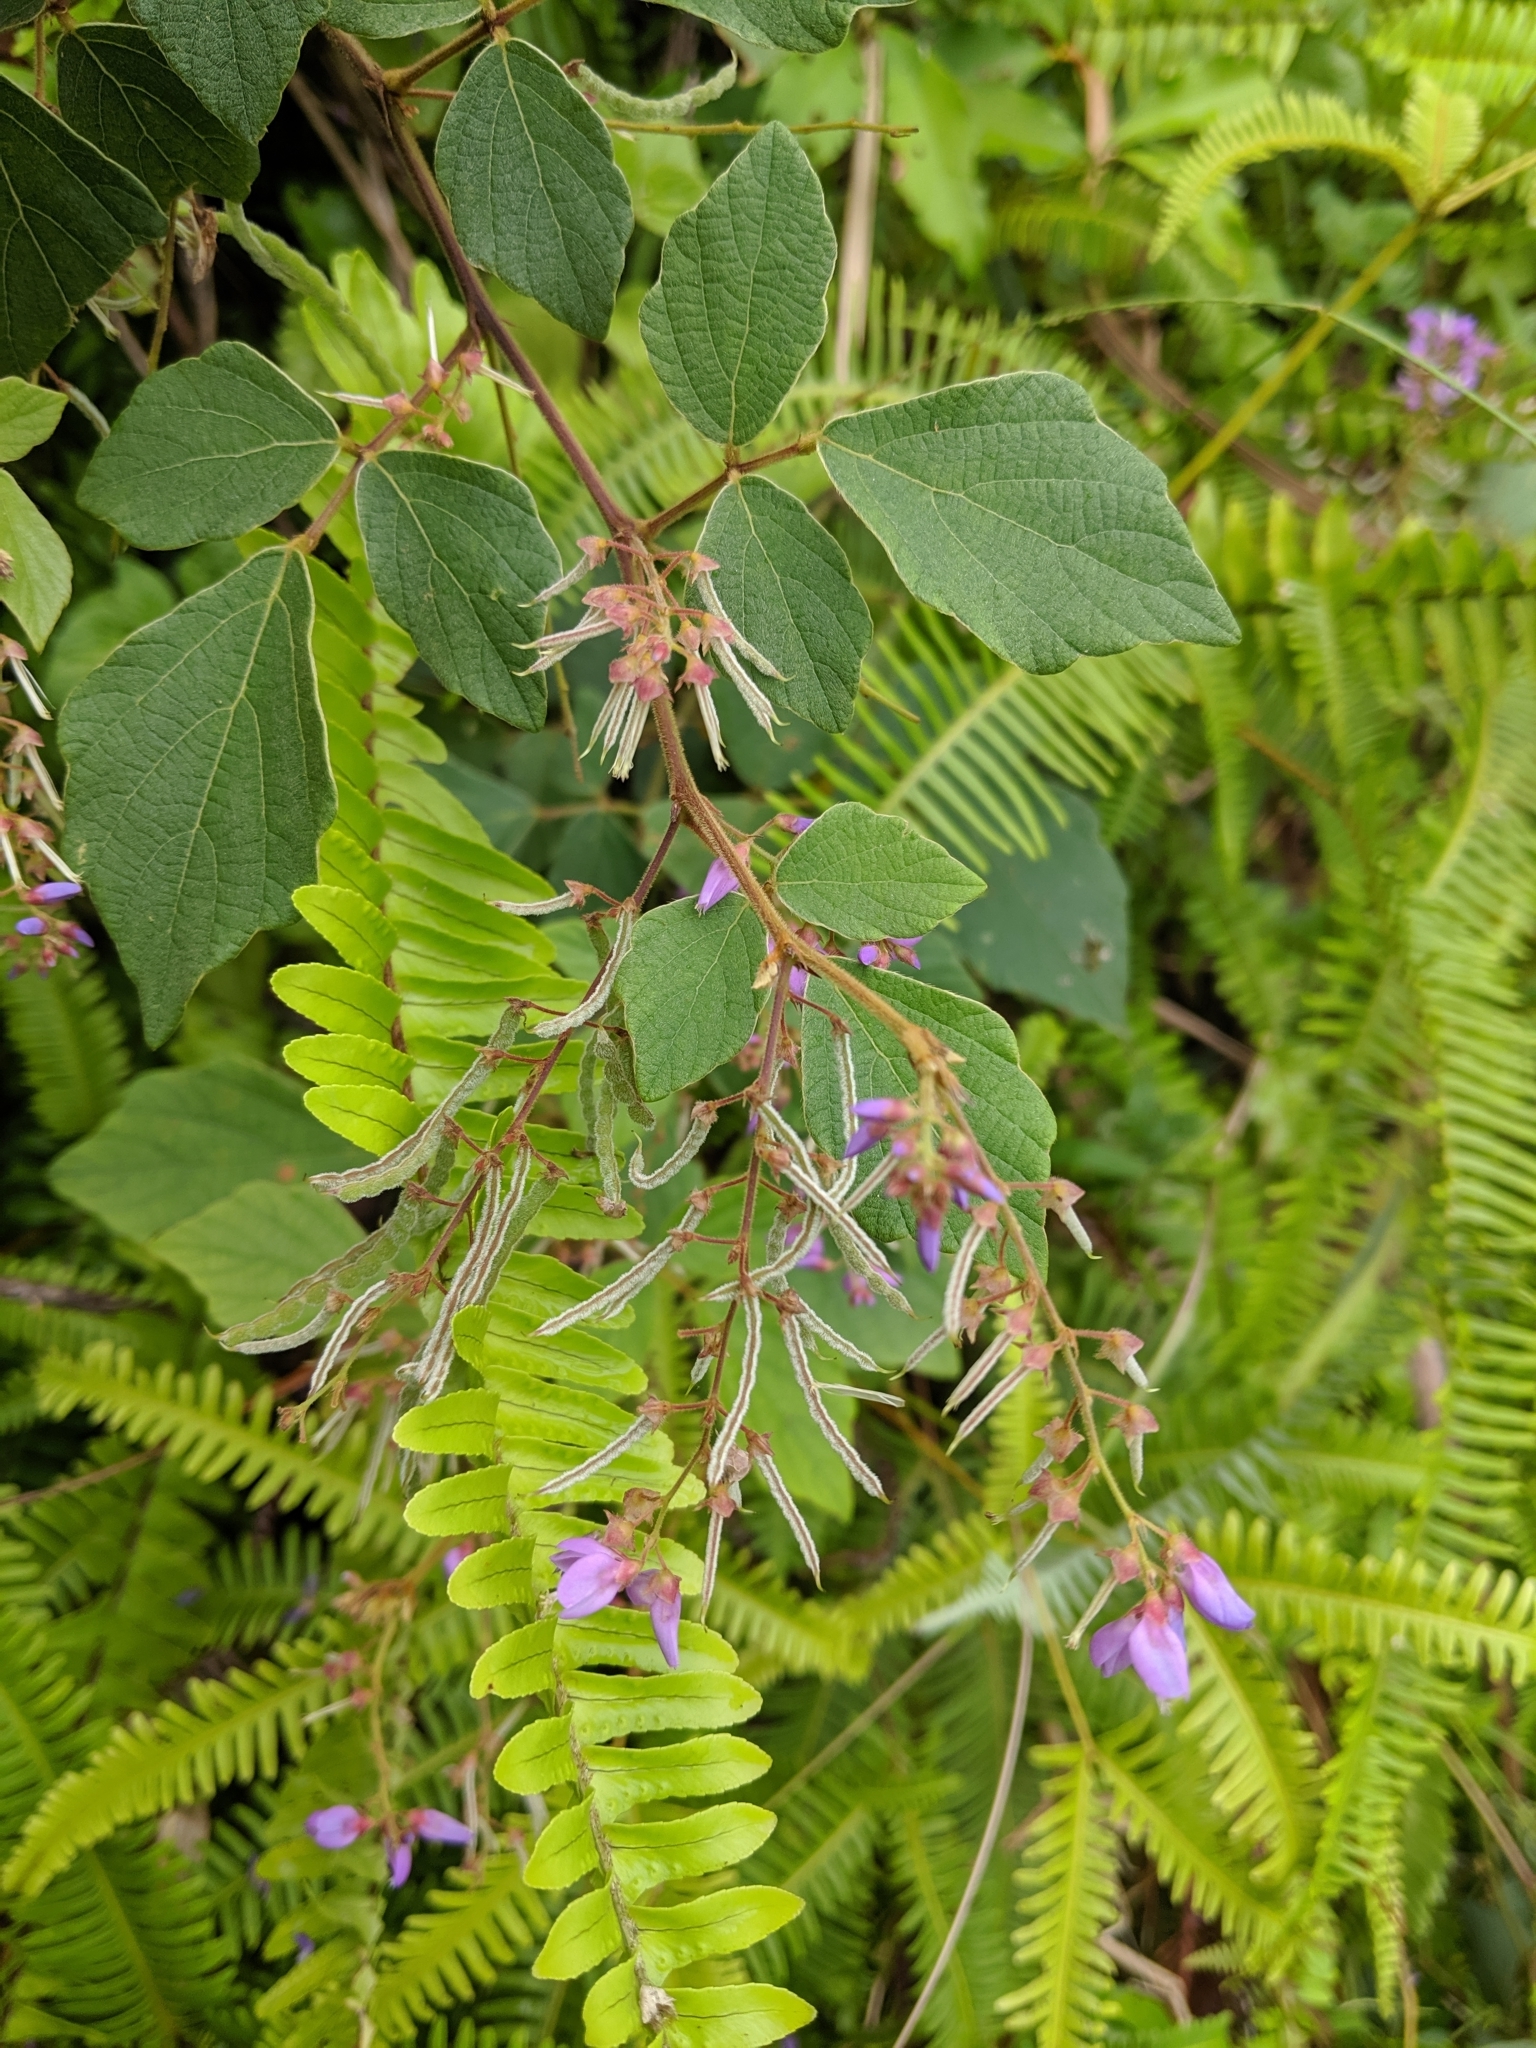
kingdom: Plantae
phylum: Tracheophyta
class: Magnoliopsida
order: Fabales
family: Fabaceae
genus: Puhuaea
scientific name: Puhuaea sequax
